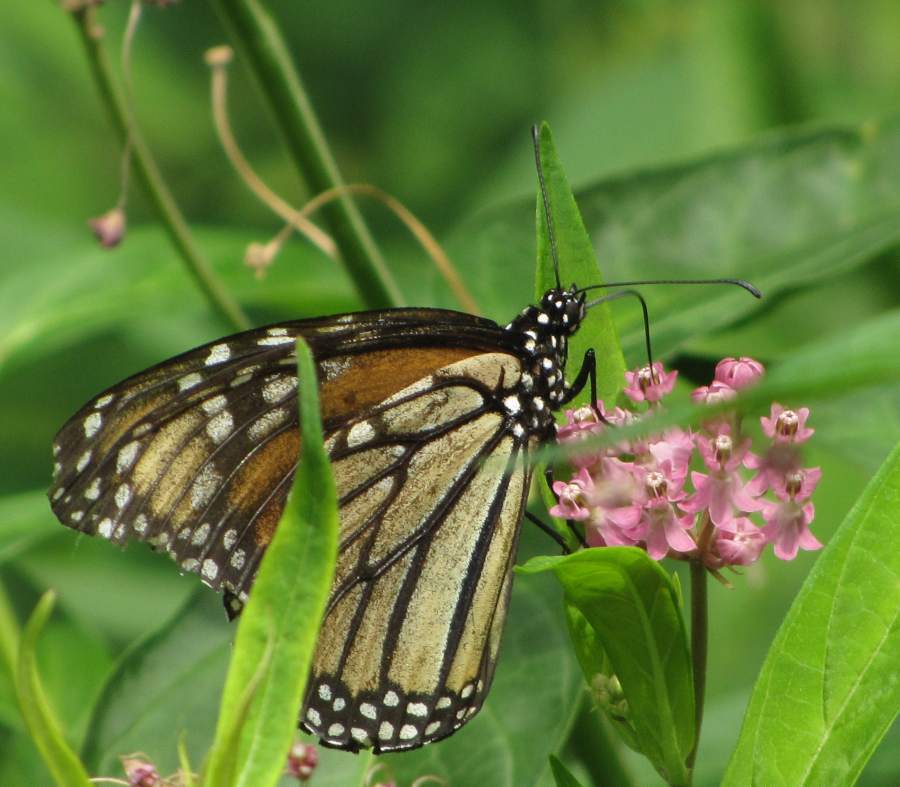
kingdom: Animalia
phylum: Arthropoda
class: Insecta
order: Lepidoptera
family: Nymphalidae
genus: Danaus
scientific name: Danaus plexippus
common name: Monarch
